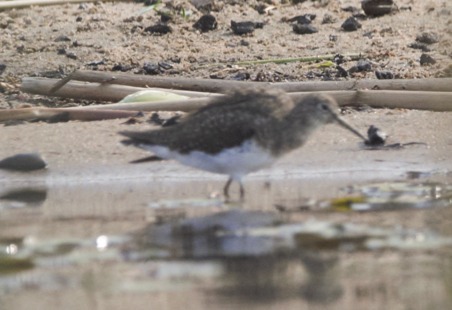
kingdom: Animalia
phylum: Chordata
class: Aves
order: Charadriiformes
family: Scolopacidae
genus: Tringa
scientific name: Tringa solitaria
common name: Solitary sandpiper
